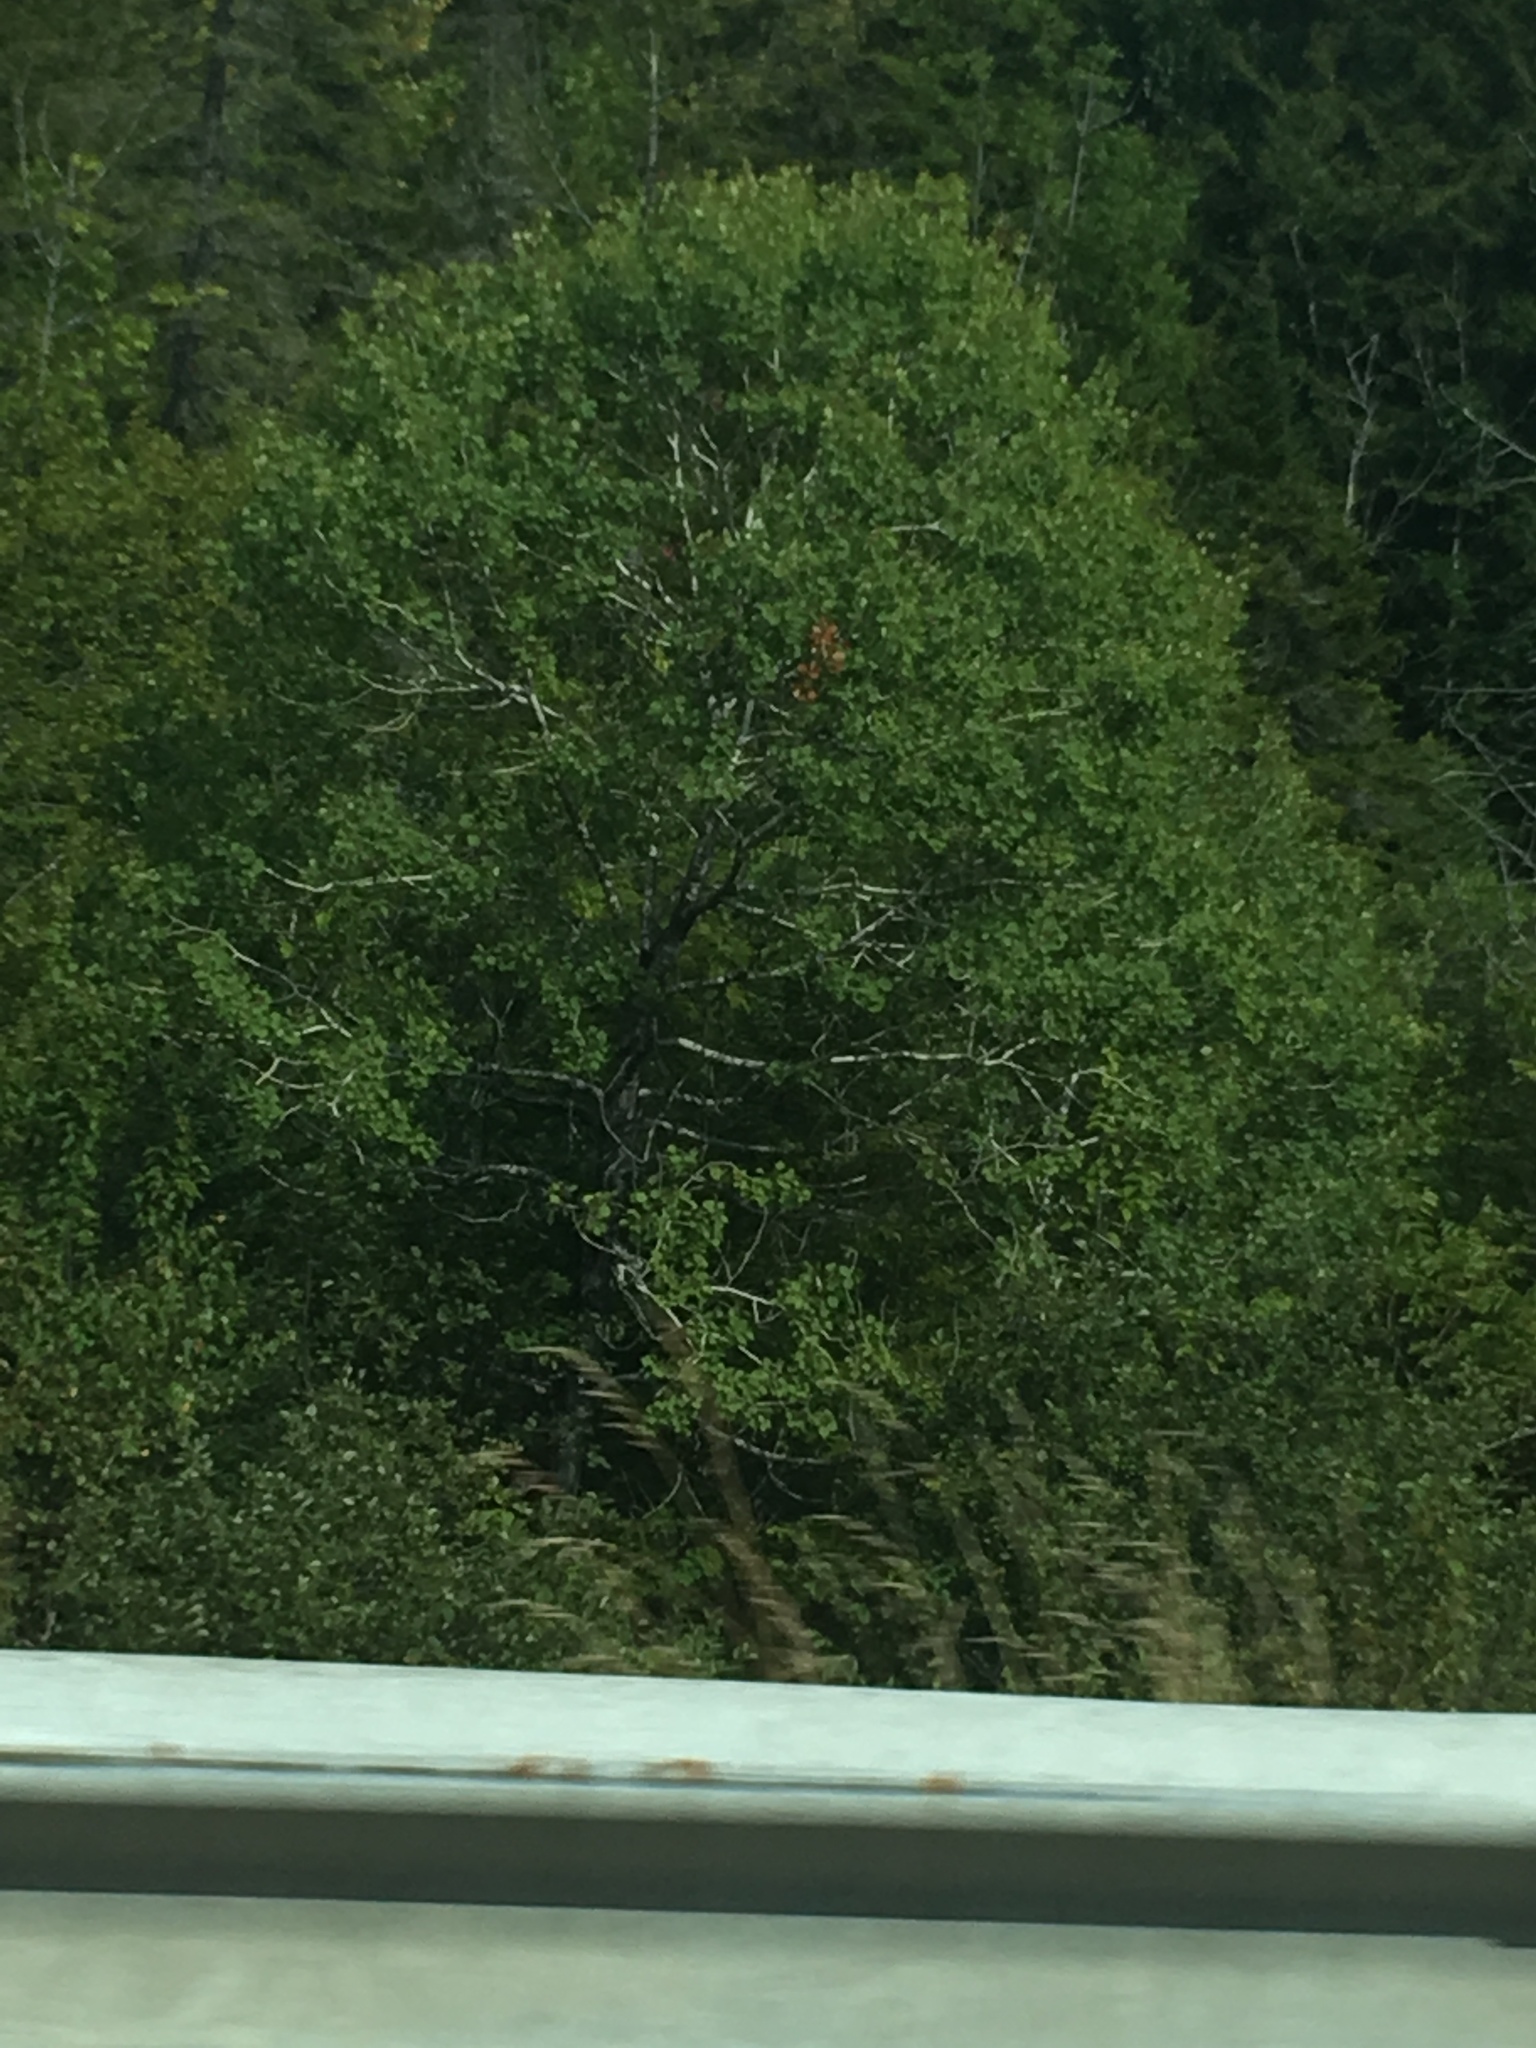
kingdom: Plantae
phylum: Tracheophyta
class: Magnoliopsida
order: Malpighiales
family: Salicaceae
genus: Populus
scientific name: Populus tremuloides
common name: Quaking aspen
